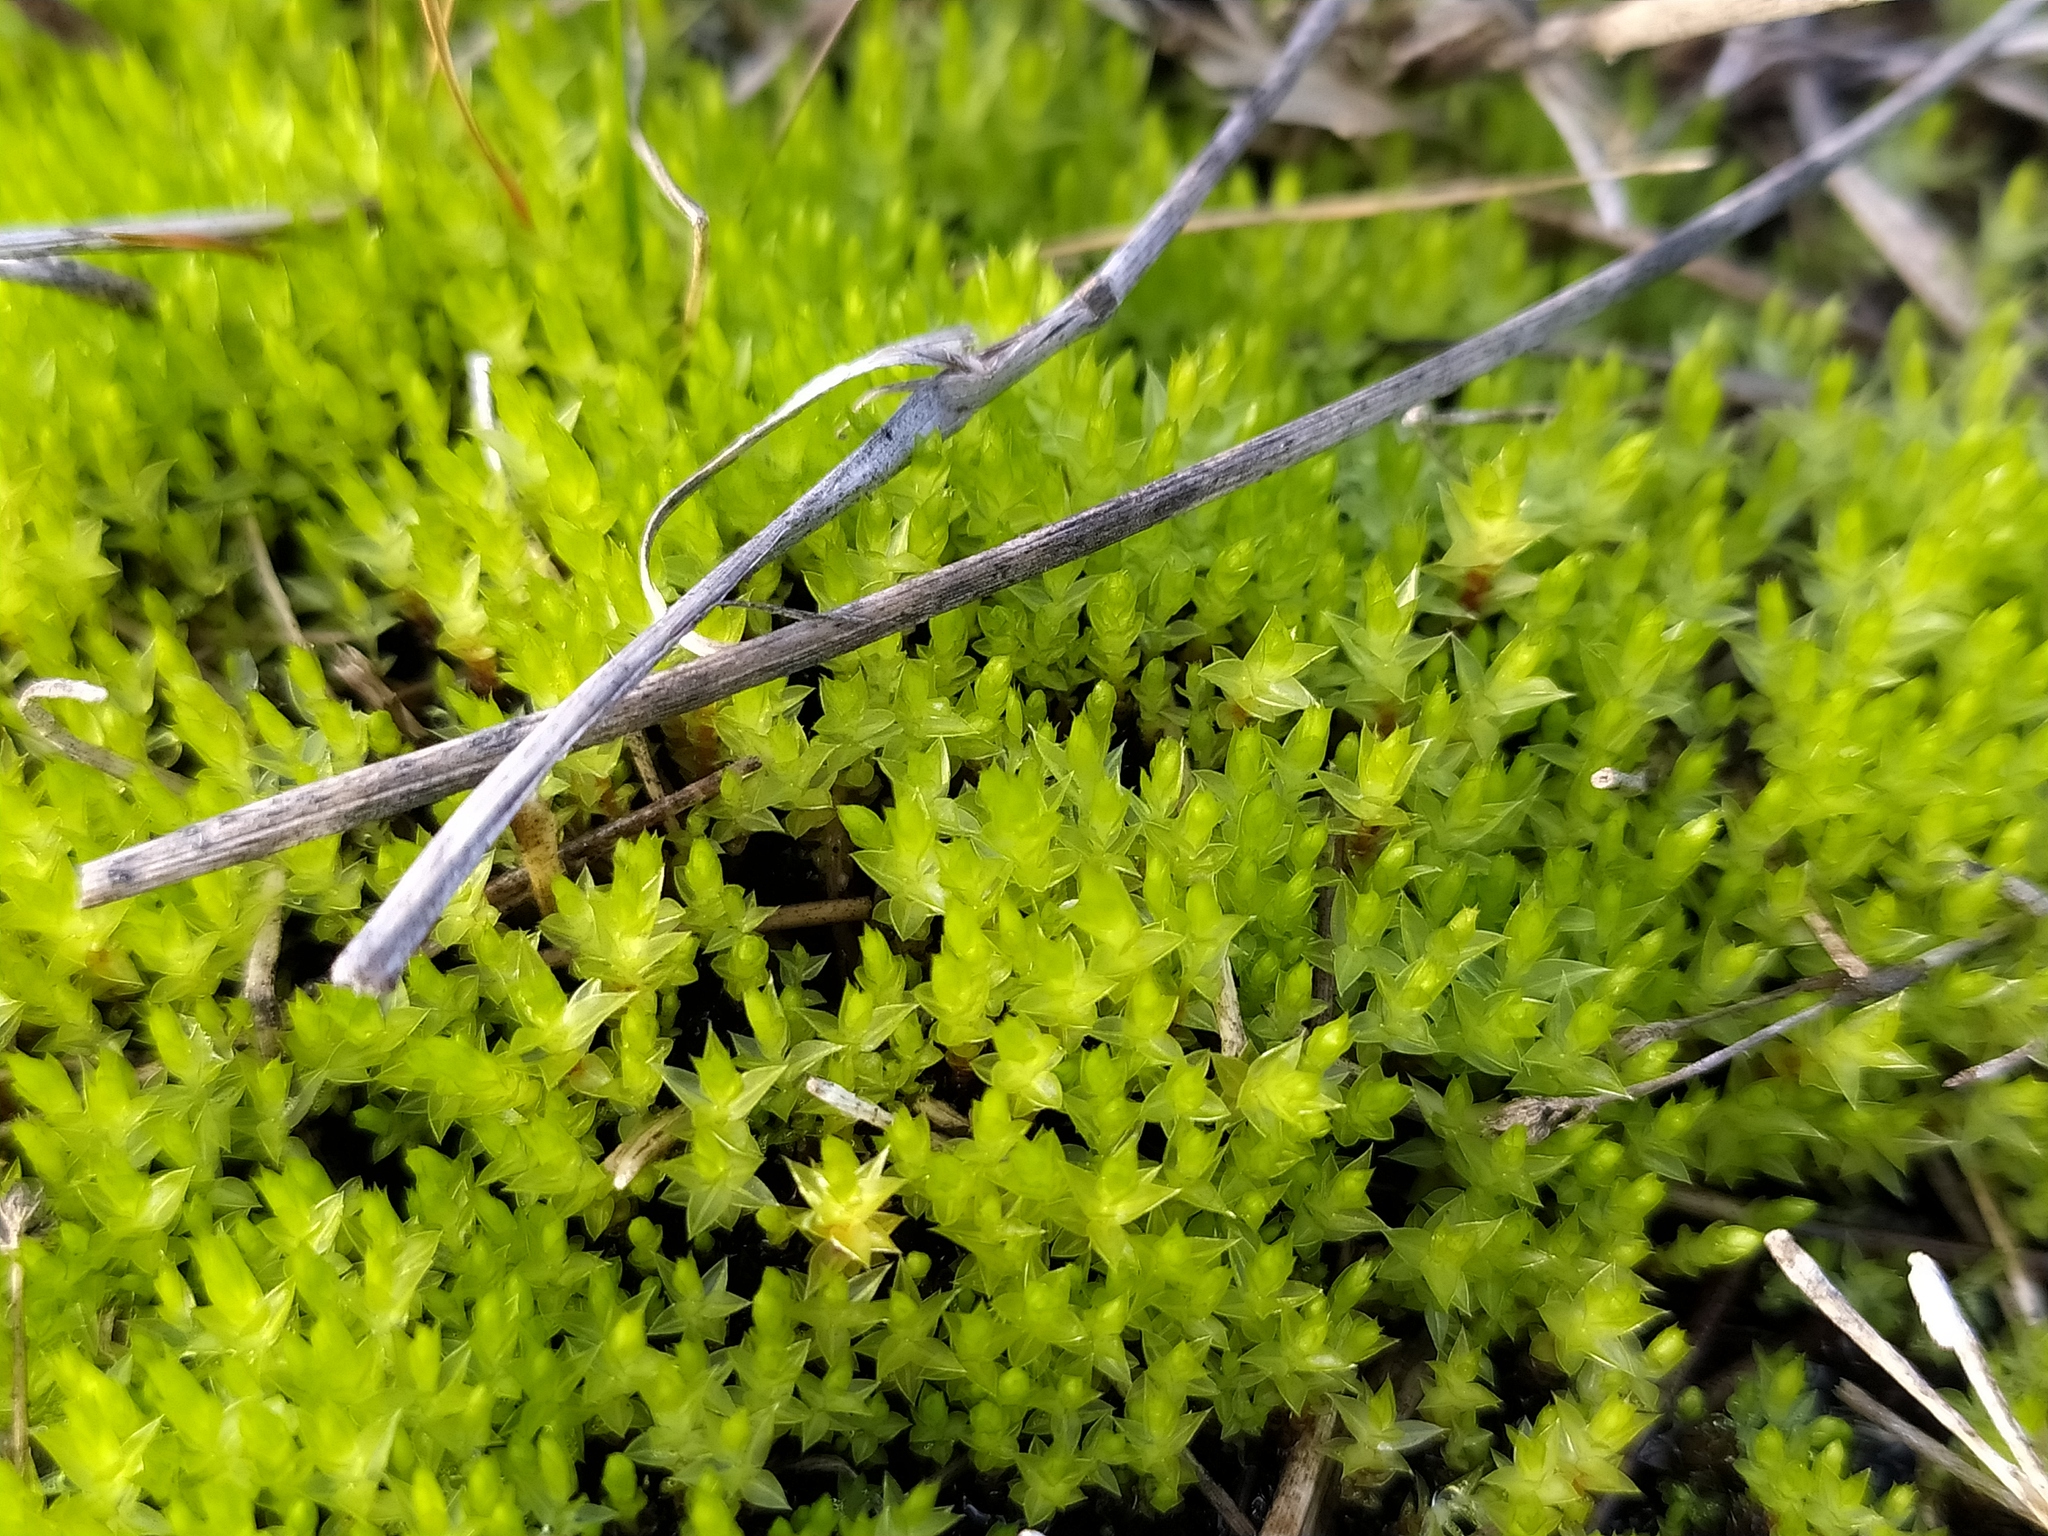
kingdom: Plantae
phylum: Bryophyta
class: Bryopsida
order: Bryales
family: Bryaceae
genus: Ptychostomum
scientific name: Ptychostomum pseudotriquetrum
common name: Long-leaved thread moss
